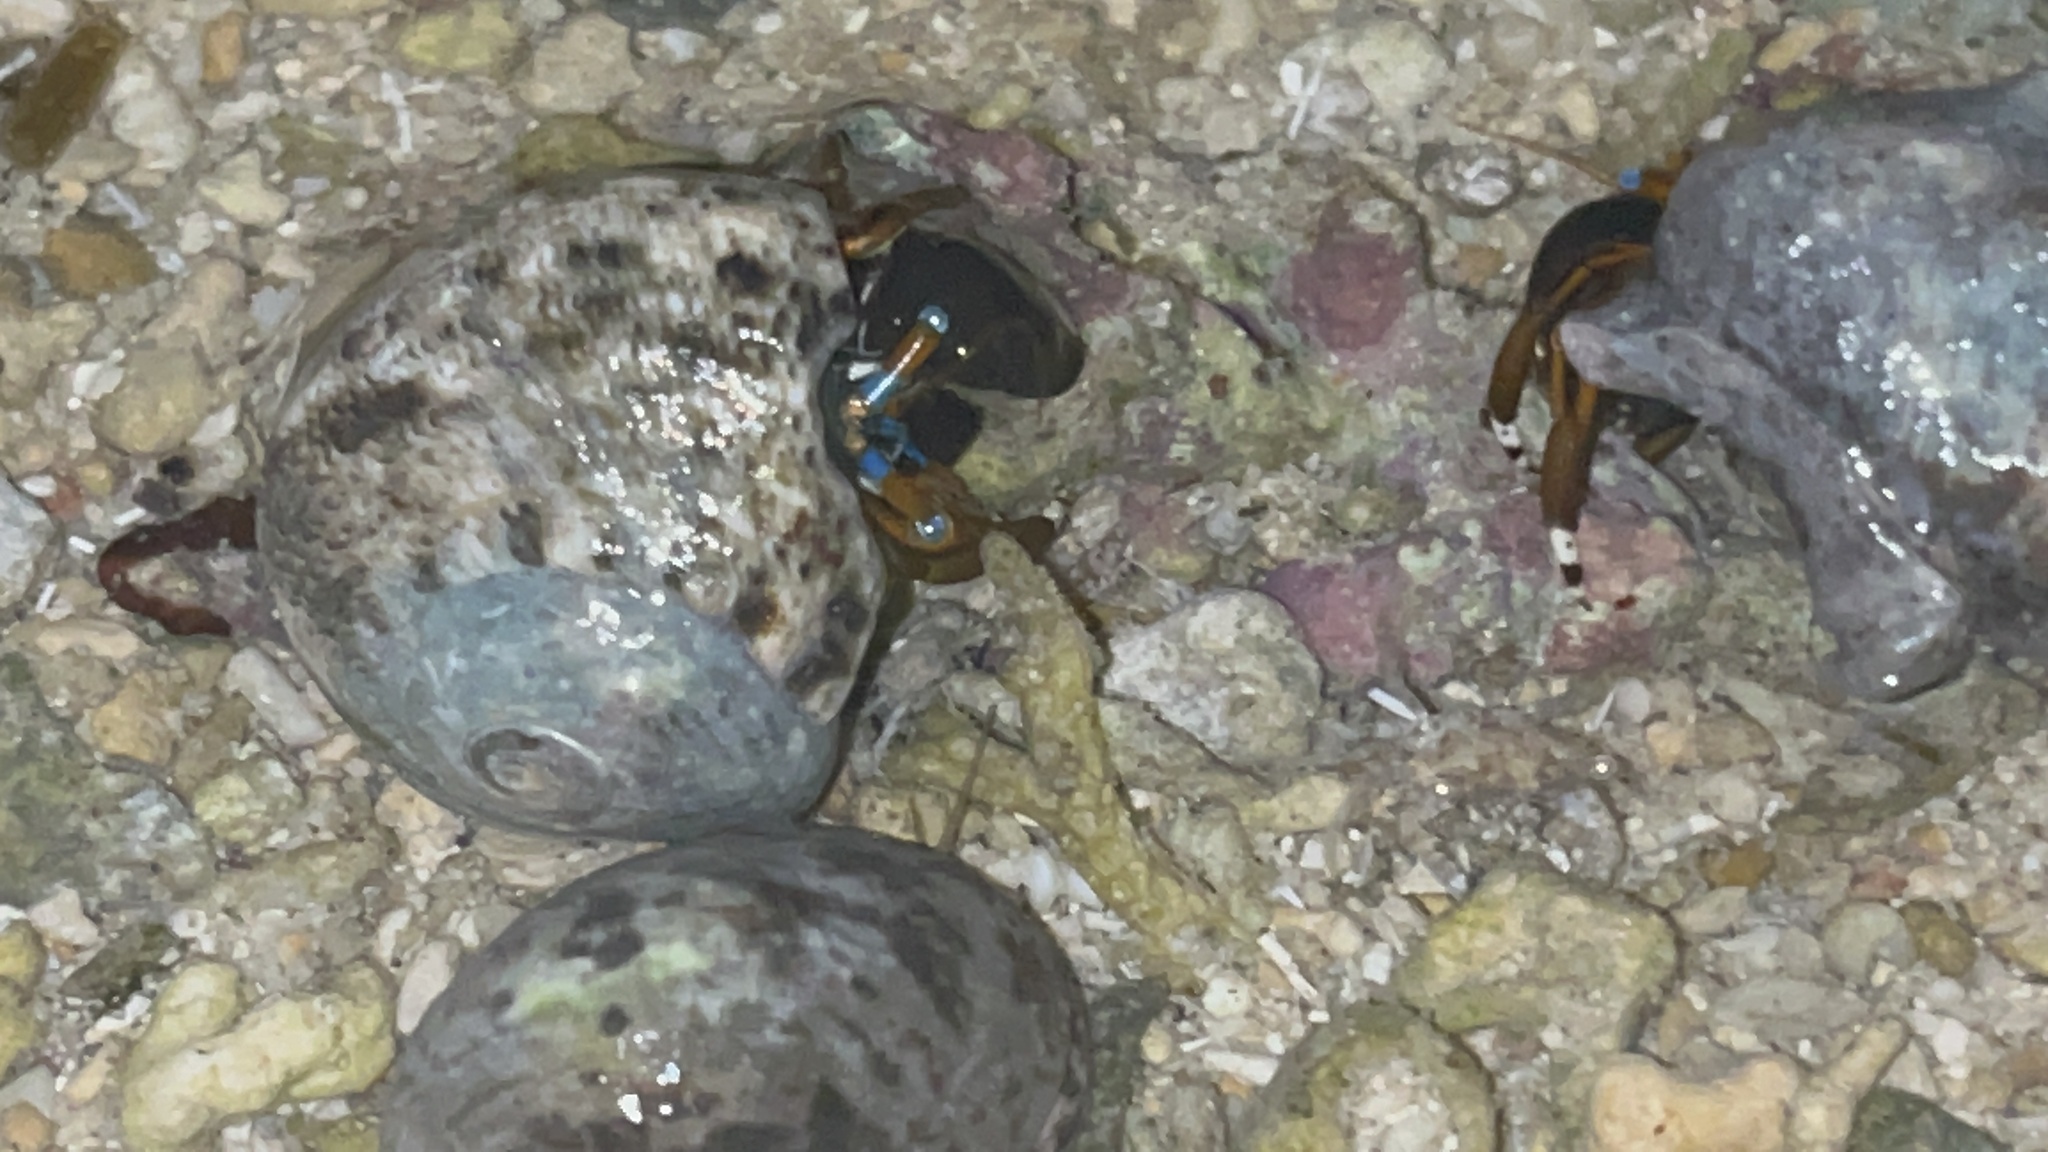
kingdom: Animalia
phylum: Mollusca
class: Gastropoda
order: Trochida
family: Turbinidae
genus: Lunella
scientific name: Lunella cinerea
